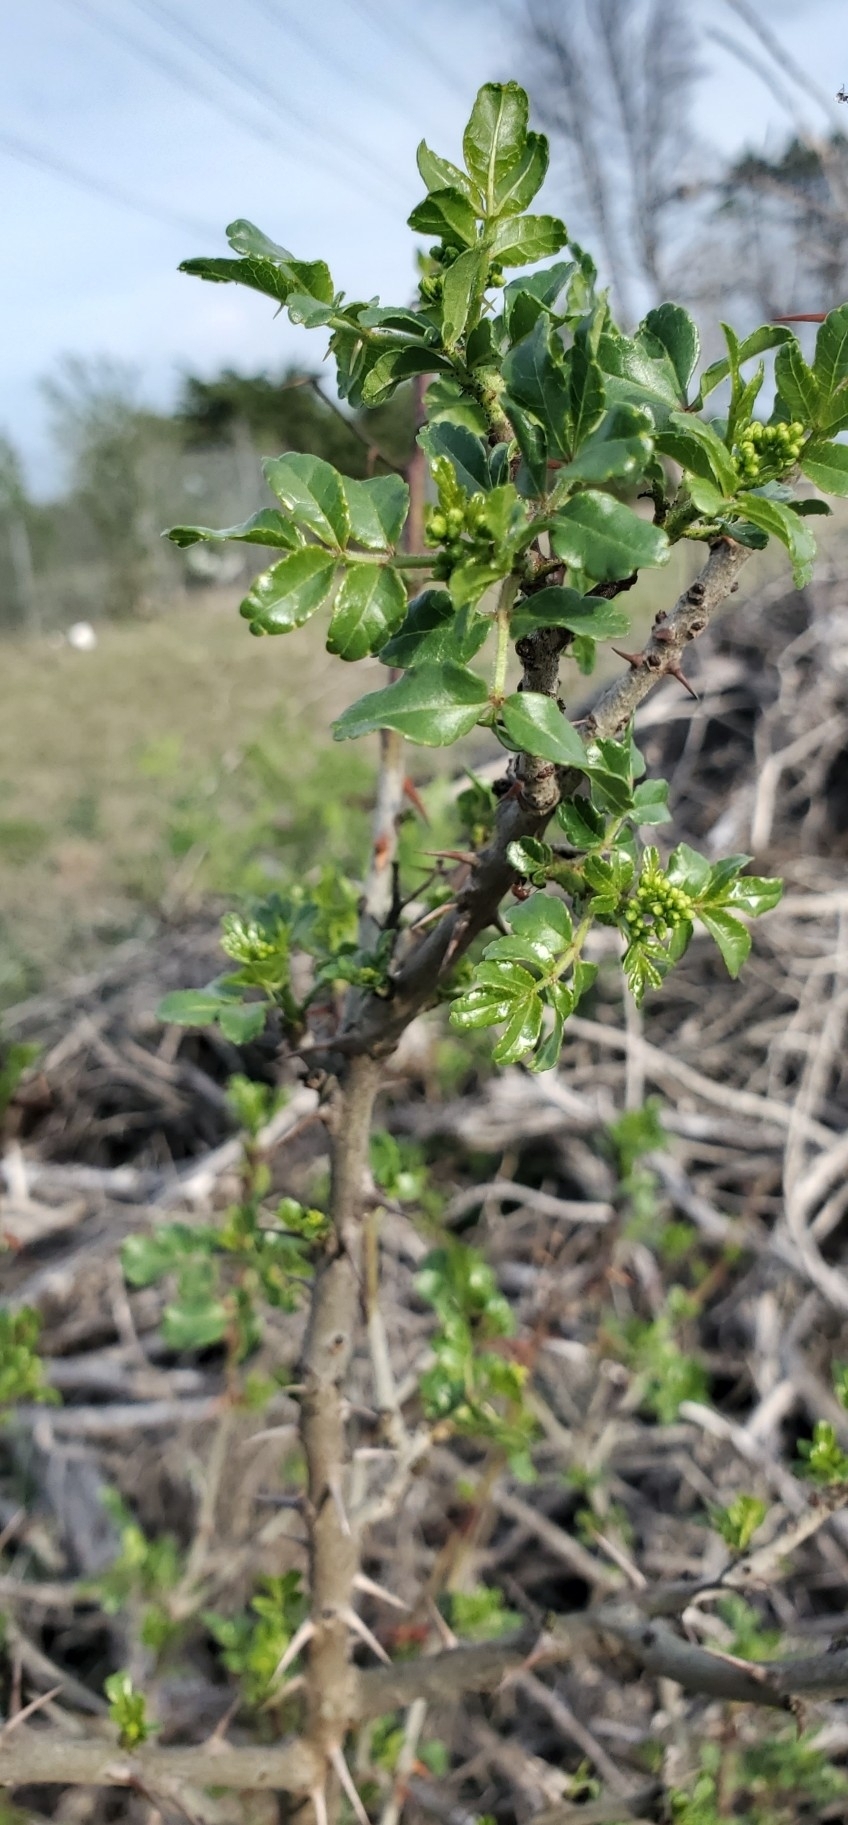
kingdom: Plantae
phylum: Tracheophyta
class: Magnoliopsida
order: Sapindales
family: Rutaceae
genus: Zanthoxylum
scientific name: Zanthoxylum clava-herculis
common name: Hercules'-club
